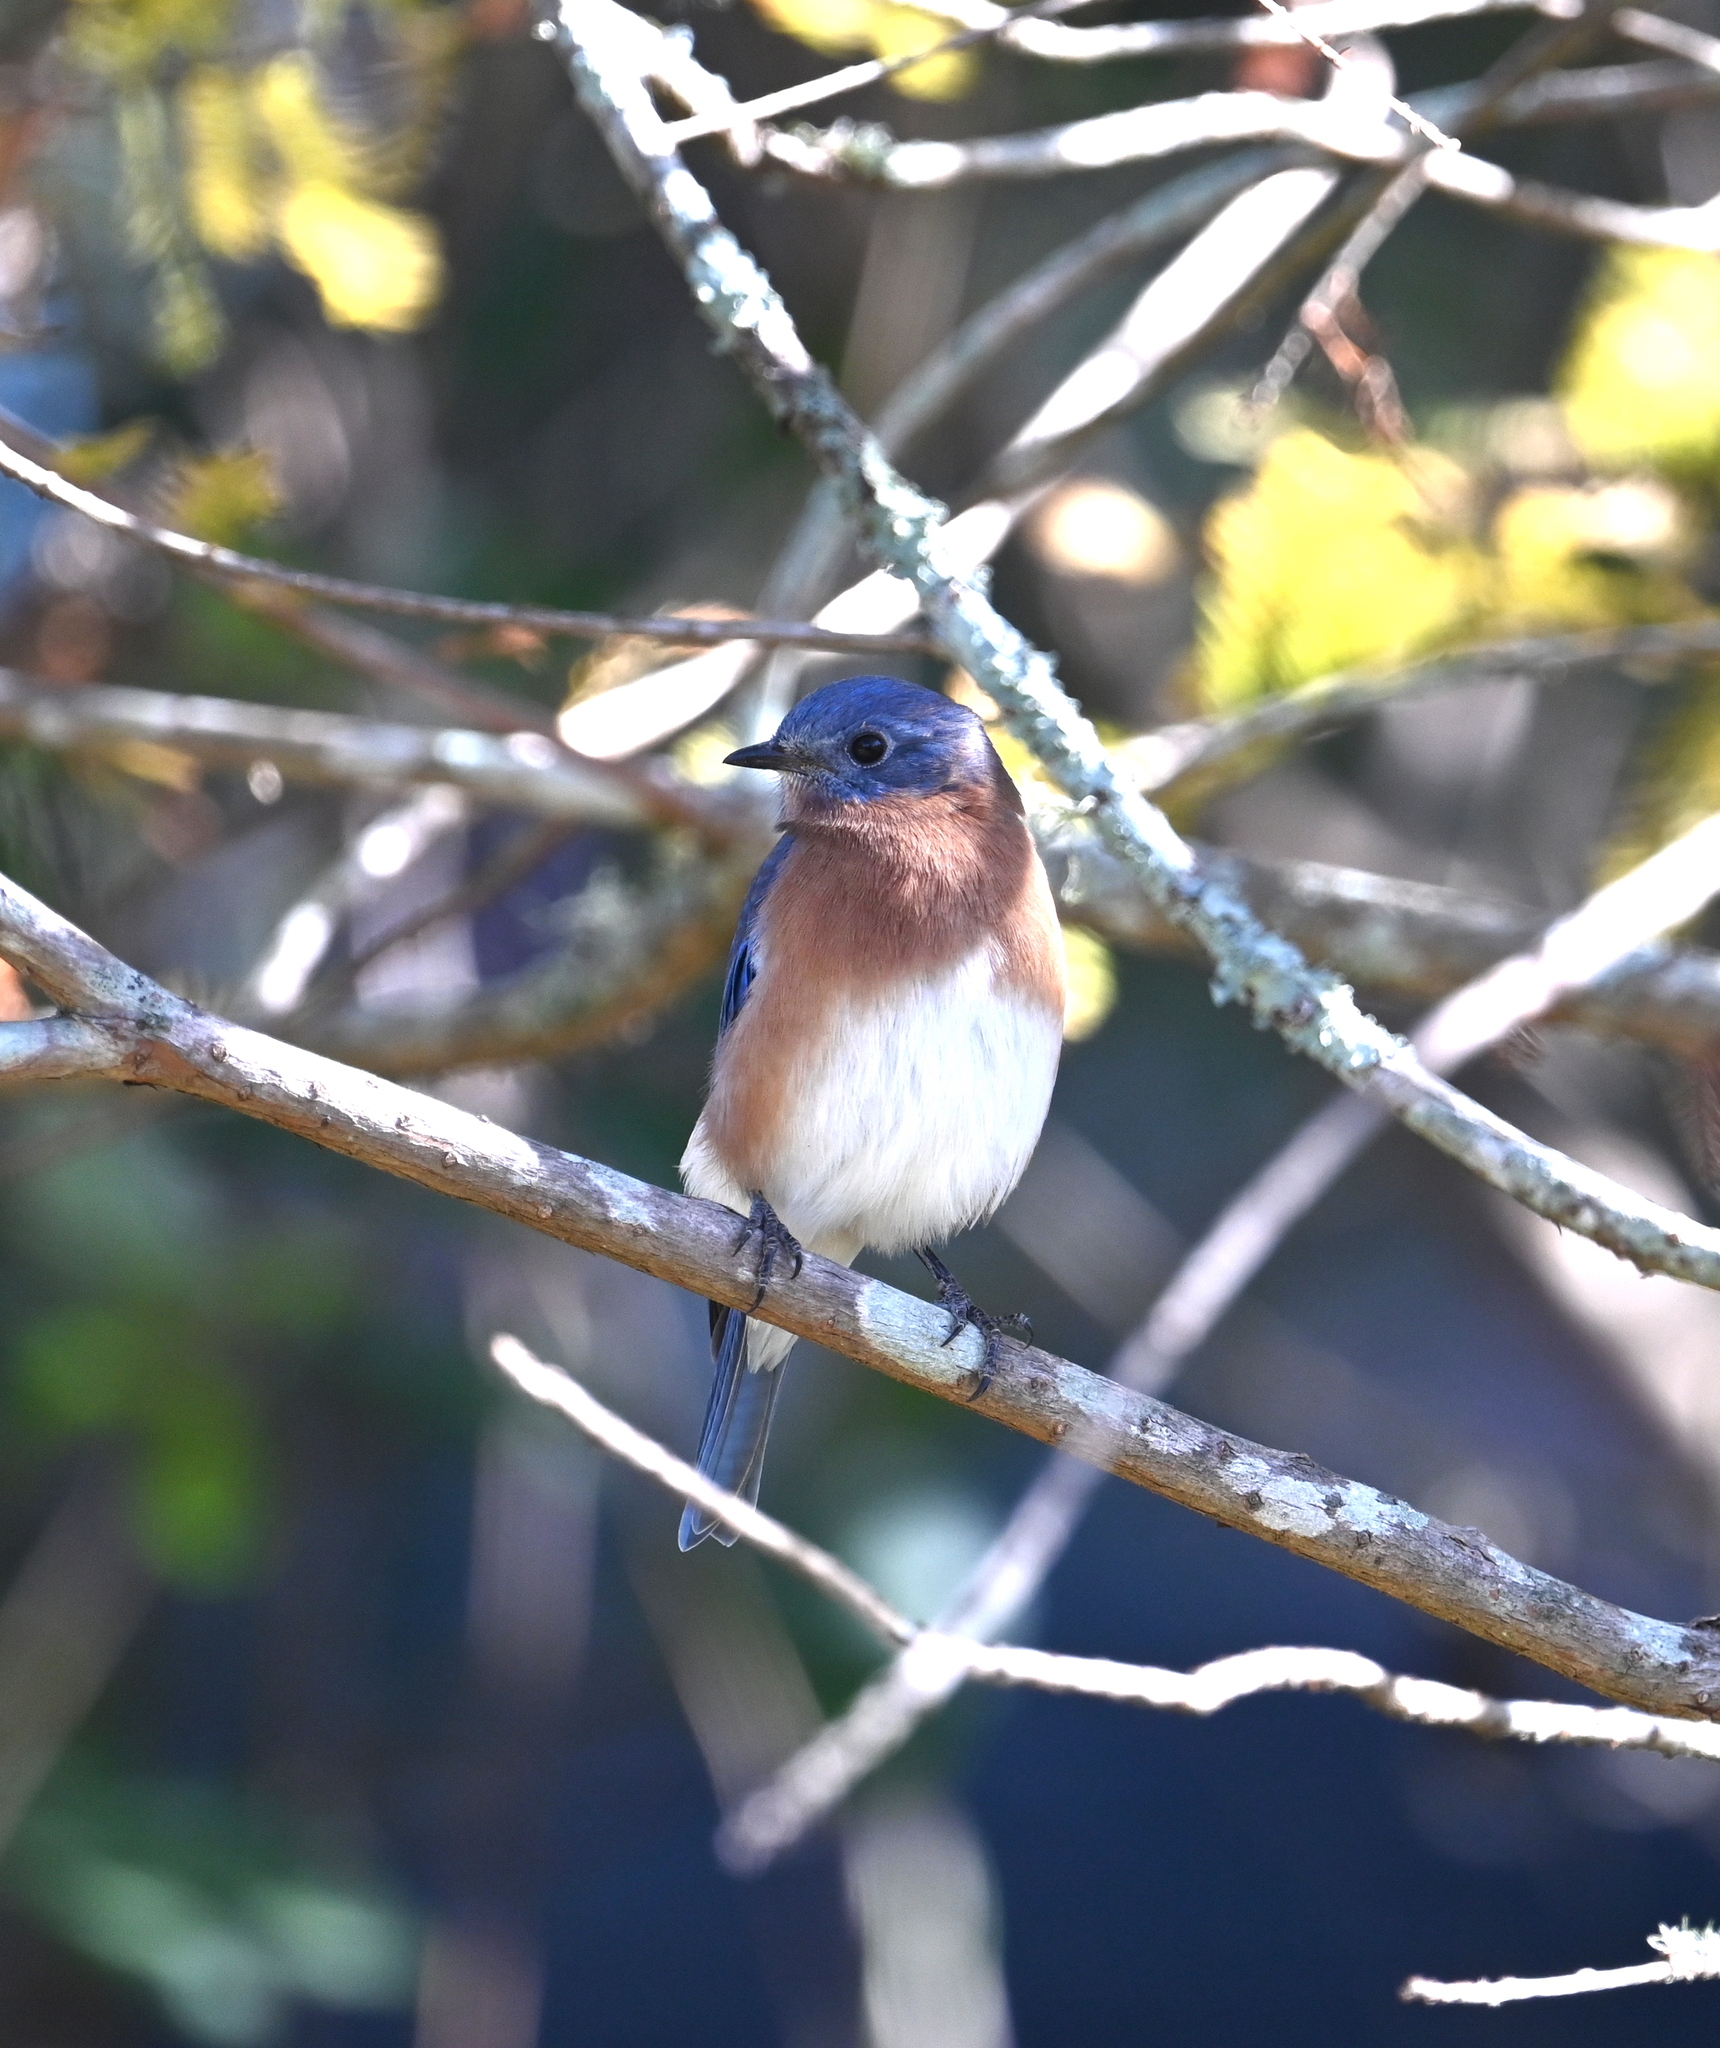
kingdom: Animalia
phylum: Chordata
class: Aves
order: Passeriformes
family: Turdidae
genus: Sialia
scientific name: Sialia sialis
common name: Eastern bluebird
